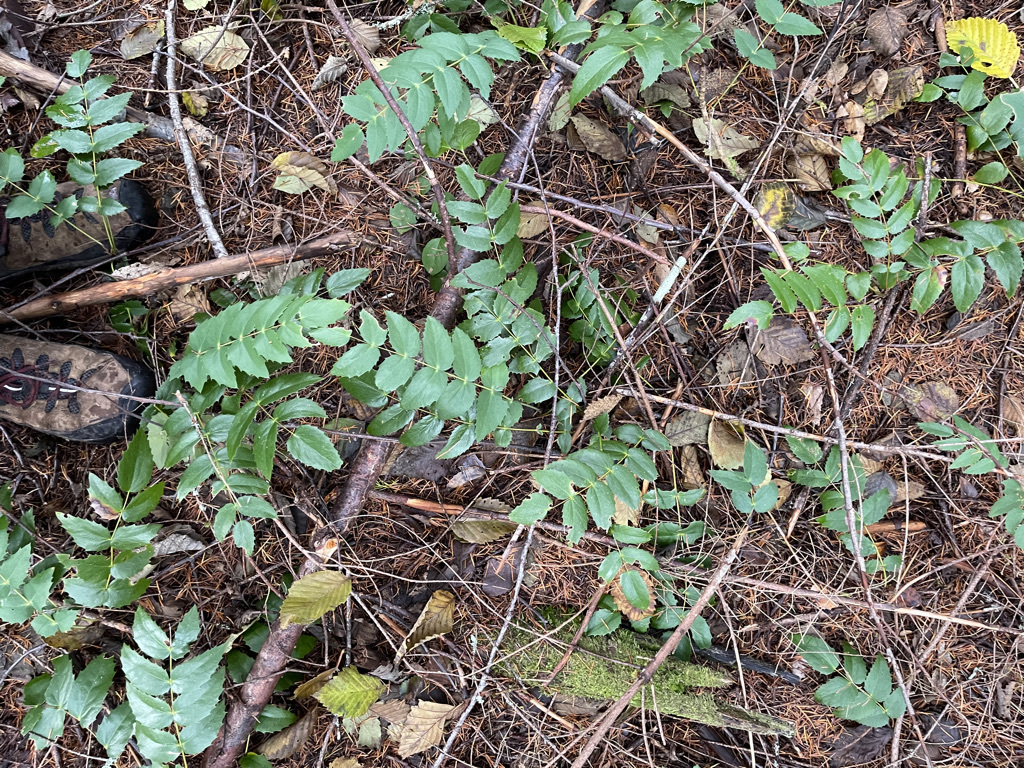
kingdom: Plantae
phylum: Tracheophyta
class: Magnoliopsida
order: Ranunculales
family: Berberidaceae
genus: Mahonia
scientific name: Mahonia nervosa
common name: Cascade oregon-grape
